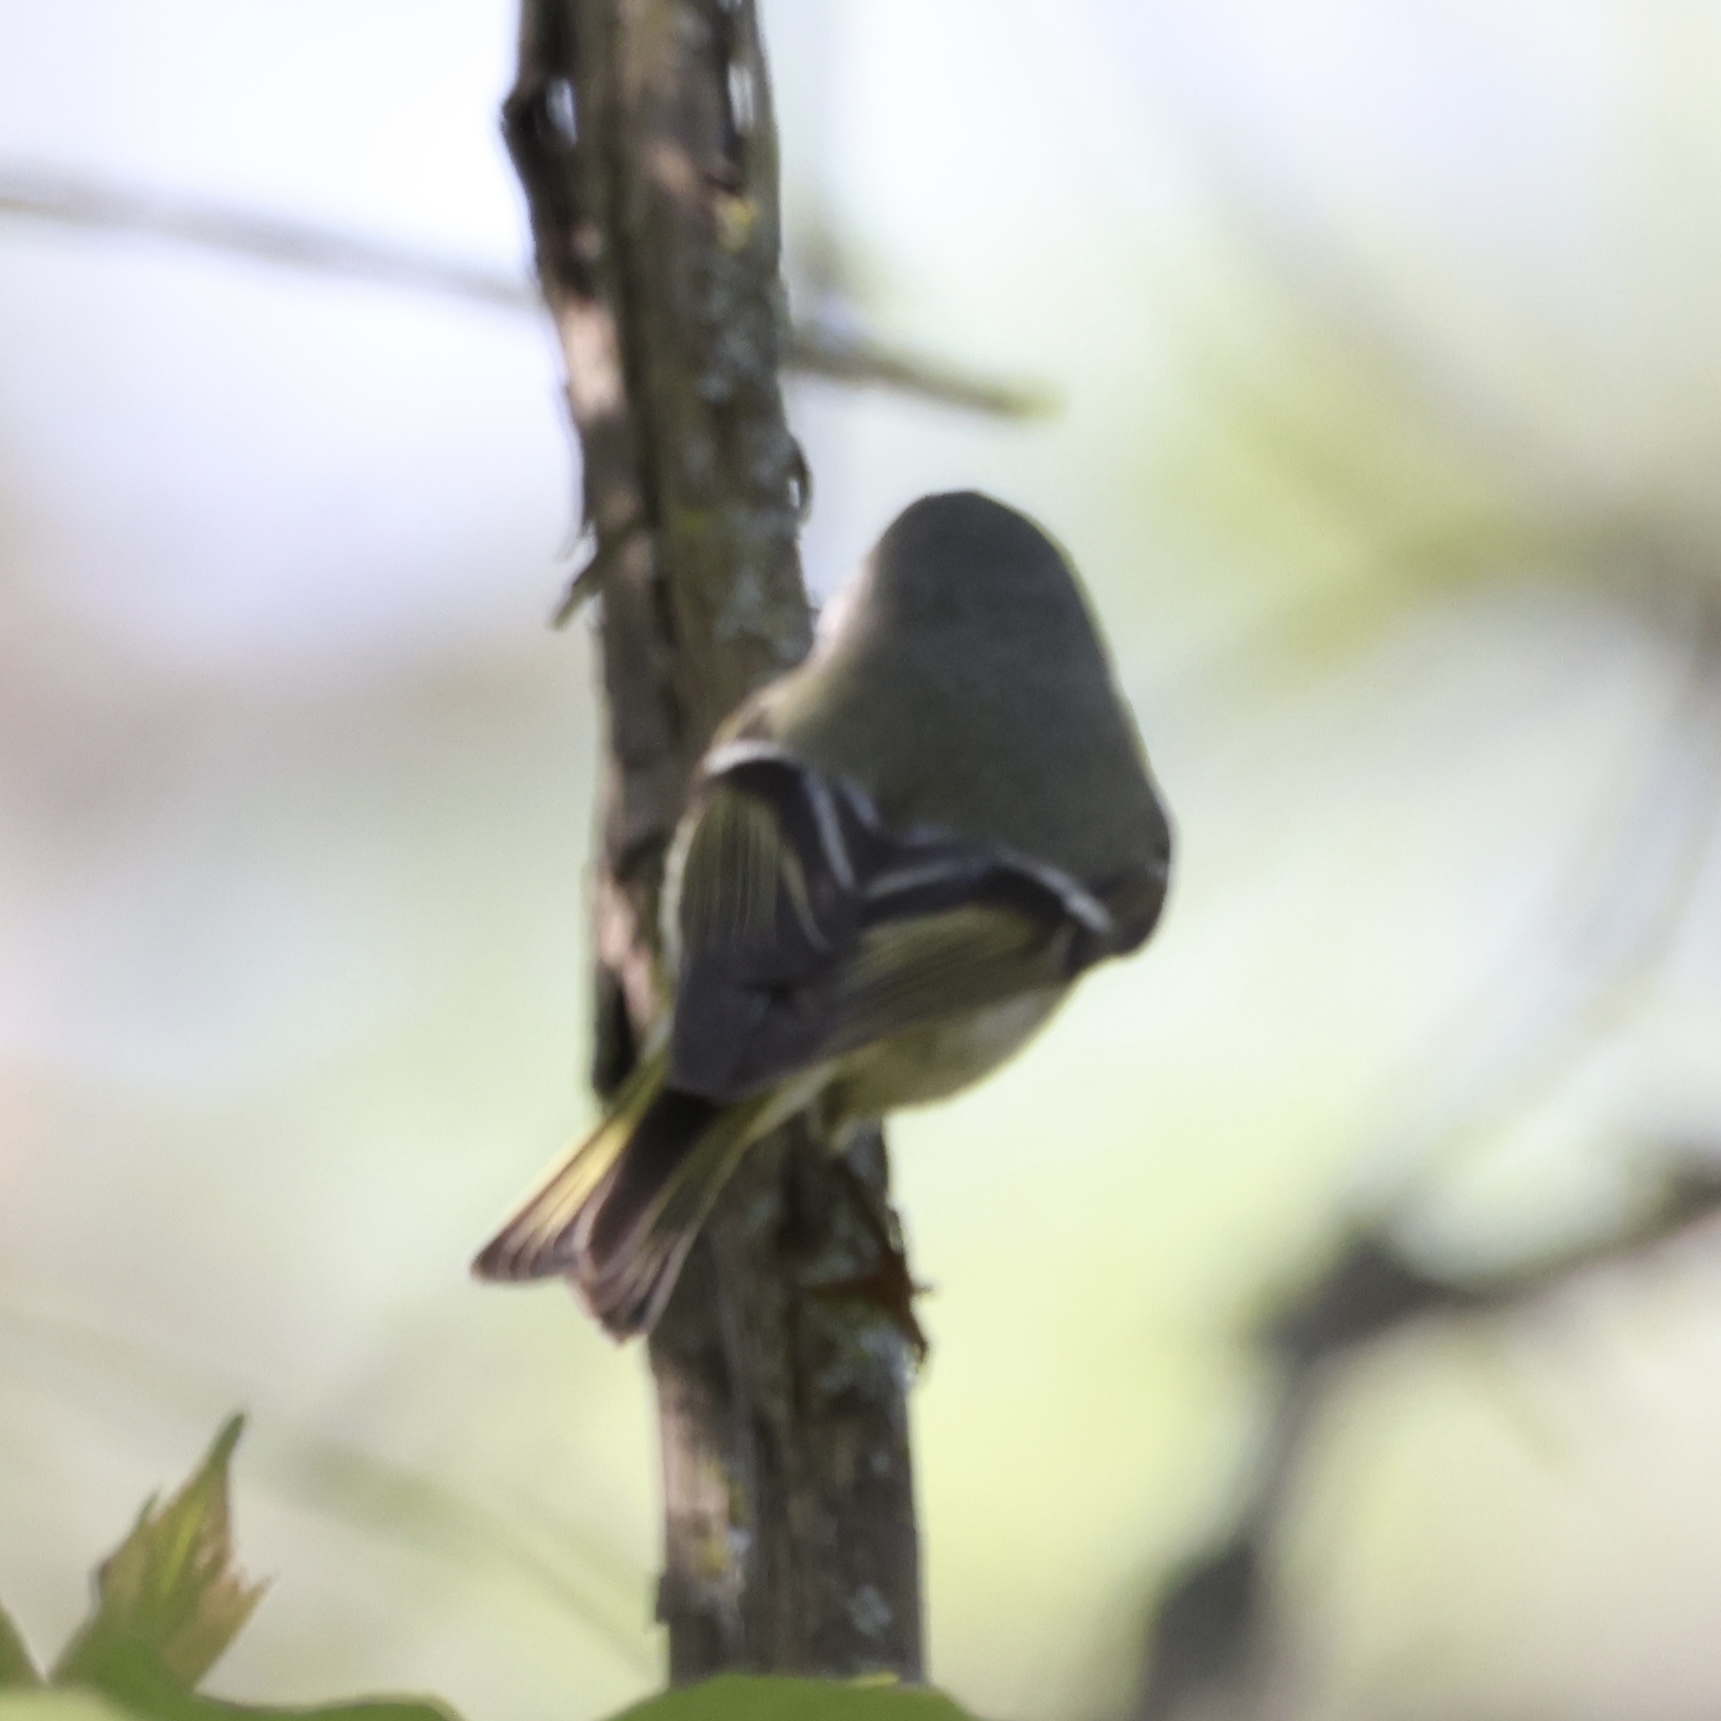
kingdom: Animalia
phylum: Chordata
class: Aves
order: Passeriformes
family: Regulidae
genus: Regulus
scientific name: Regulus calendula
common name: Ruby-crowned kinglet
